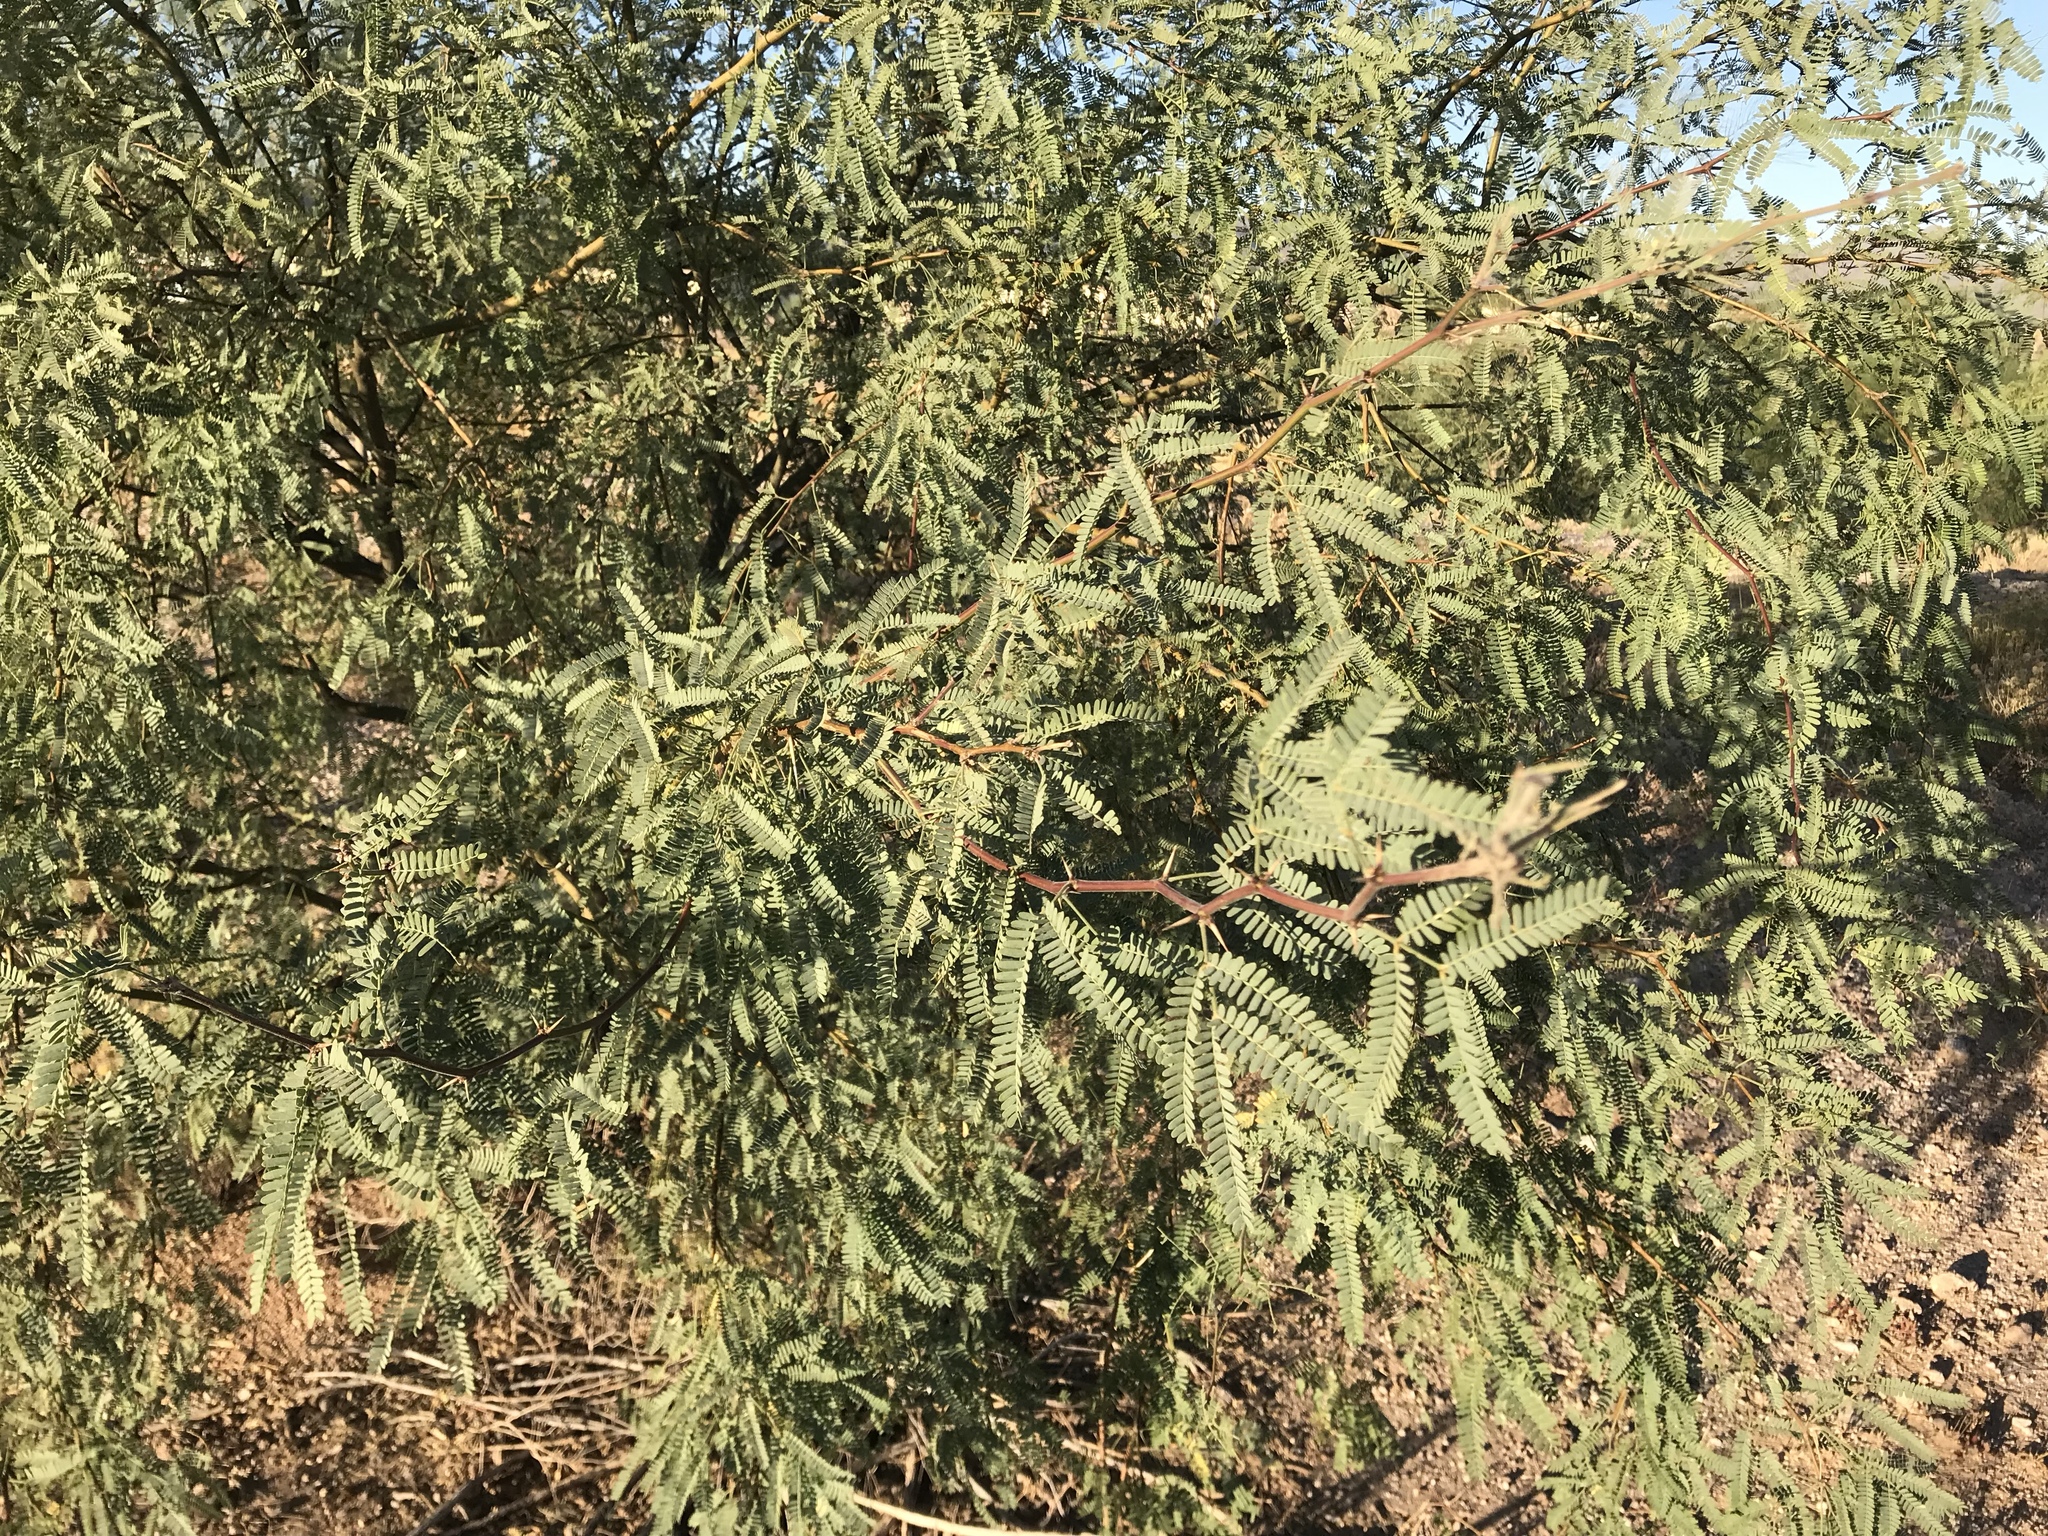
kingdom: Plantae
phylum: Tracheophyta
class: Magnoliopsida
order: Fabales
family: Fabaceae
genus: Prosopis
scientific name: Prosopis velutina
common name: Velvet mesquite
